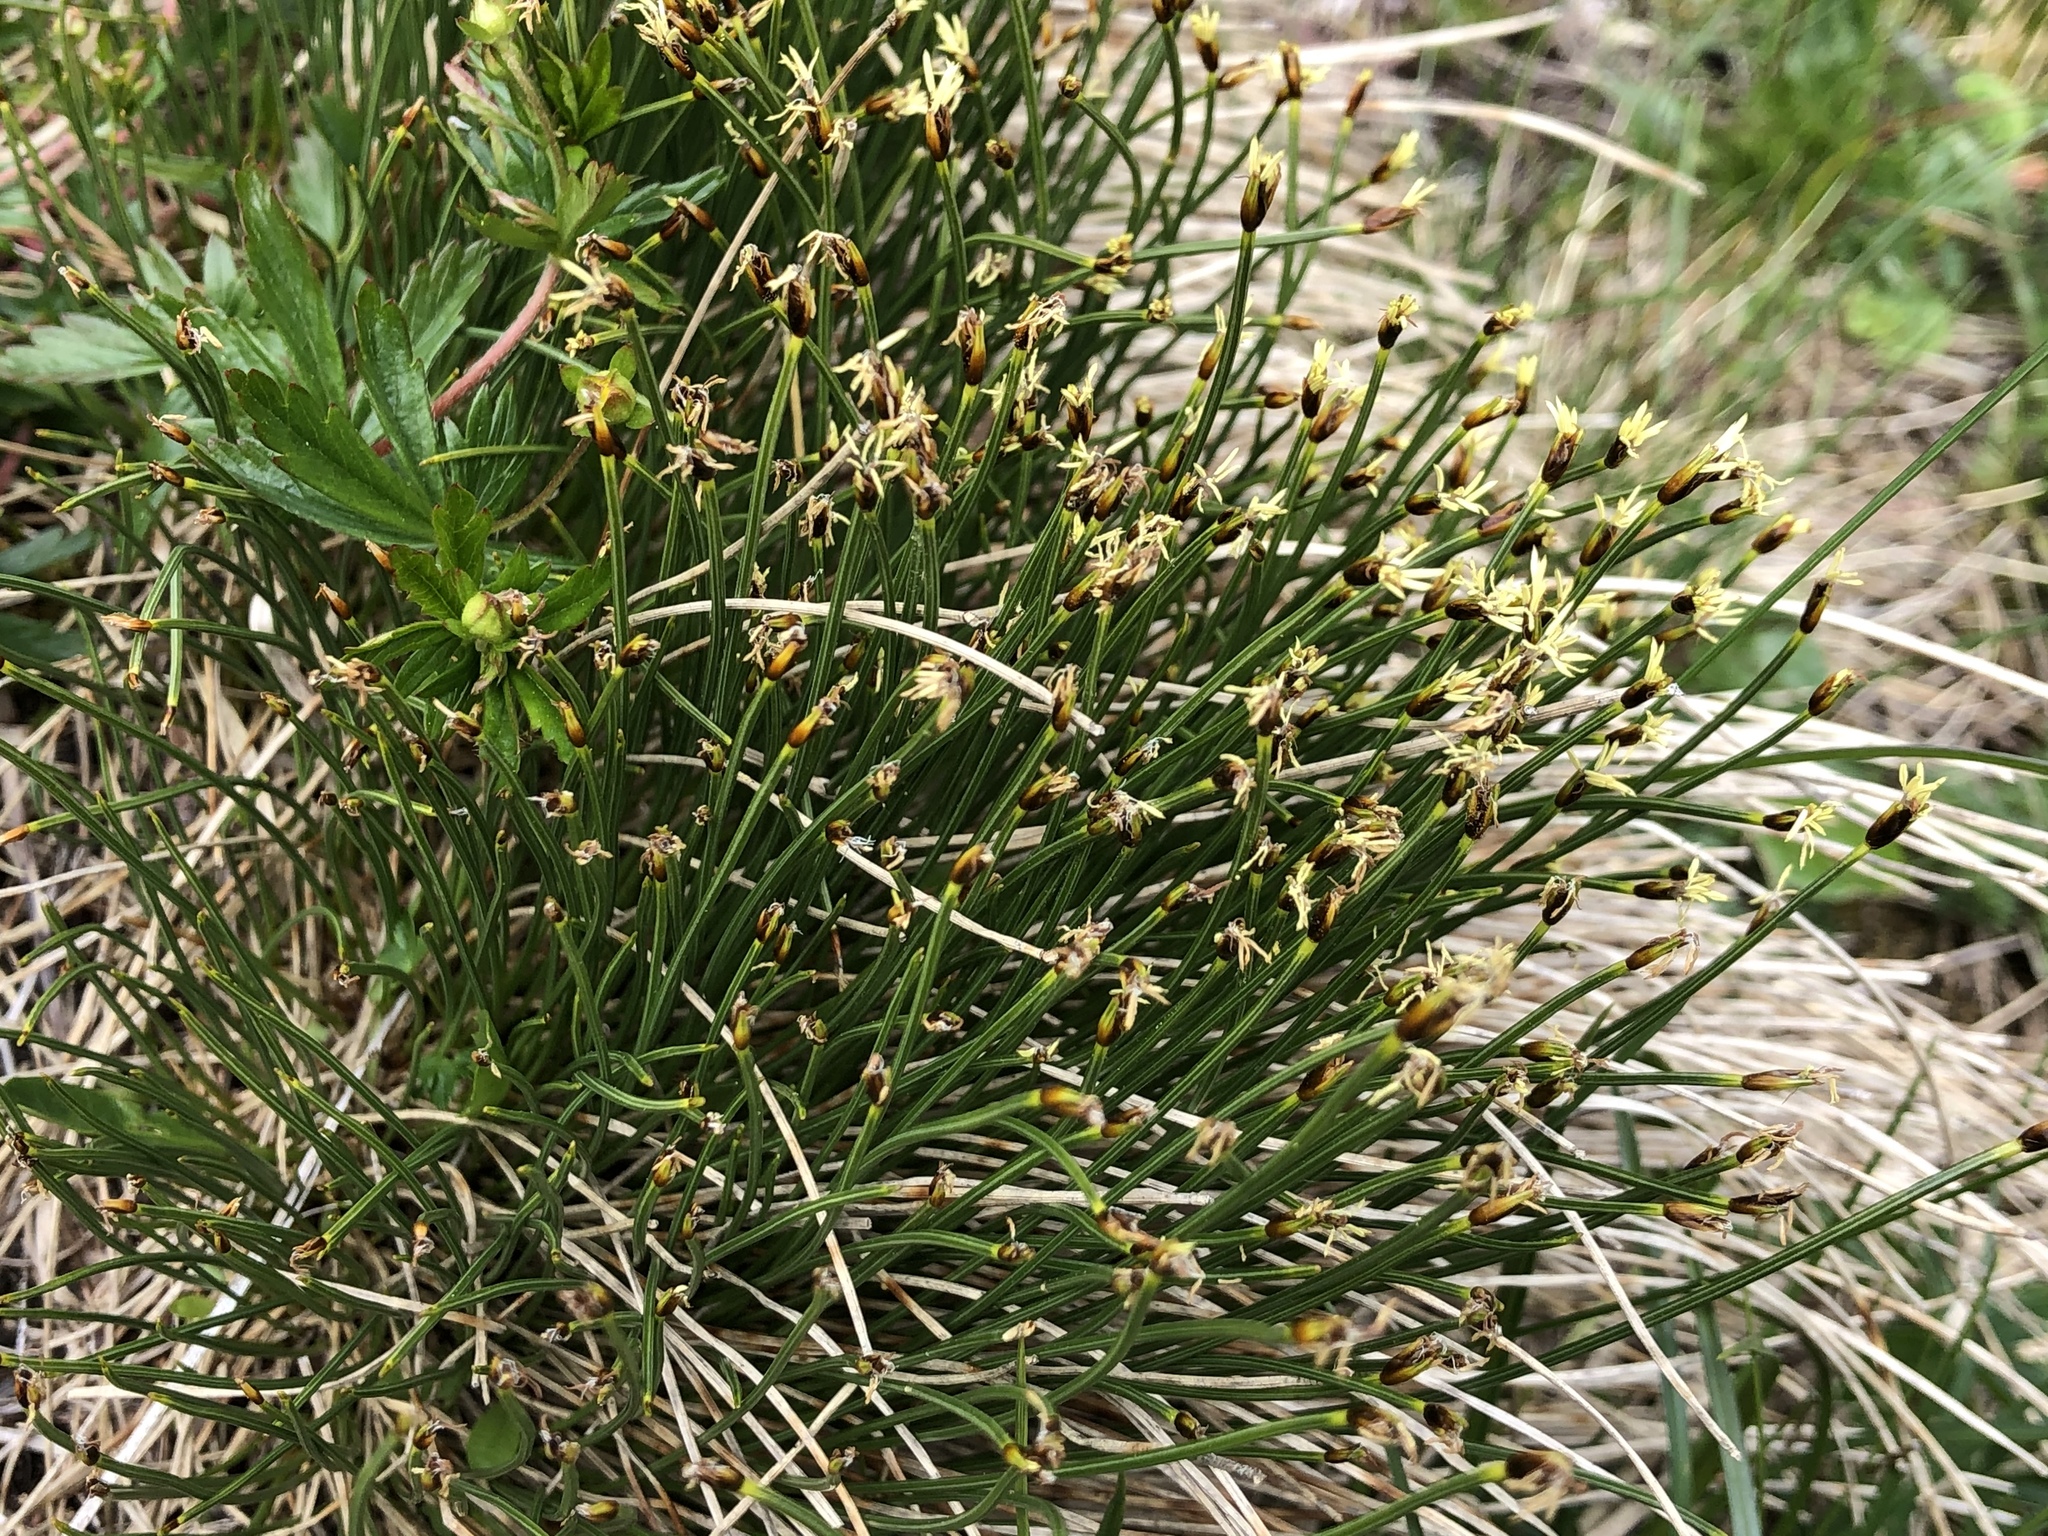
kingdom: Plantae
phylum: Tracheophyta
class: Liliopsida
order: Poales
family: Cyperaceae
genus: Trichophorum
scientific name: Trichophorum cespitosum
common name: Cespitose bulrush
